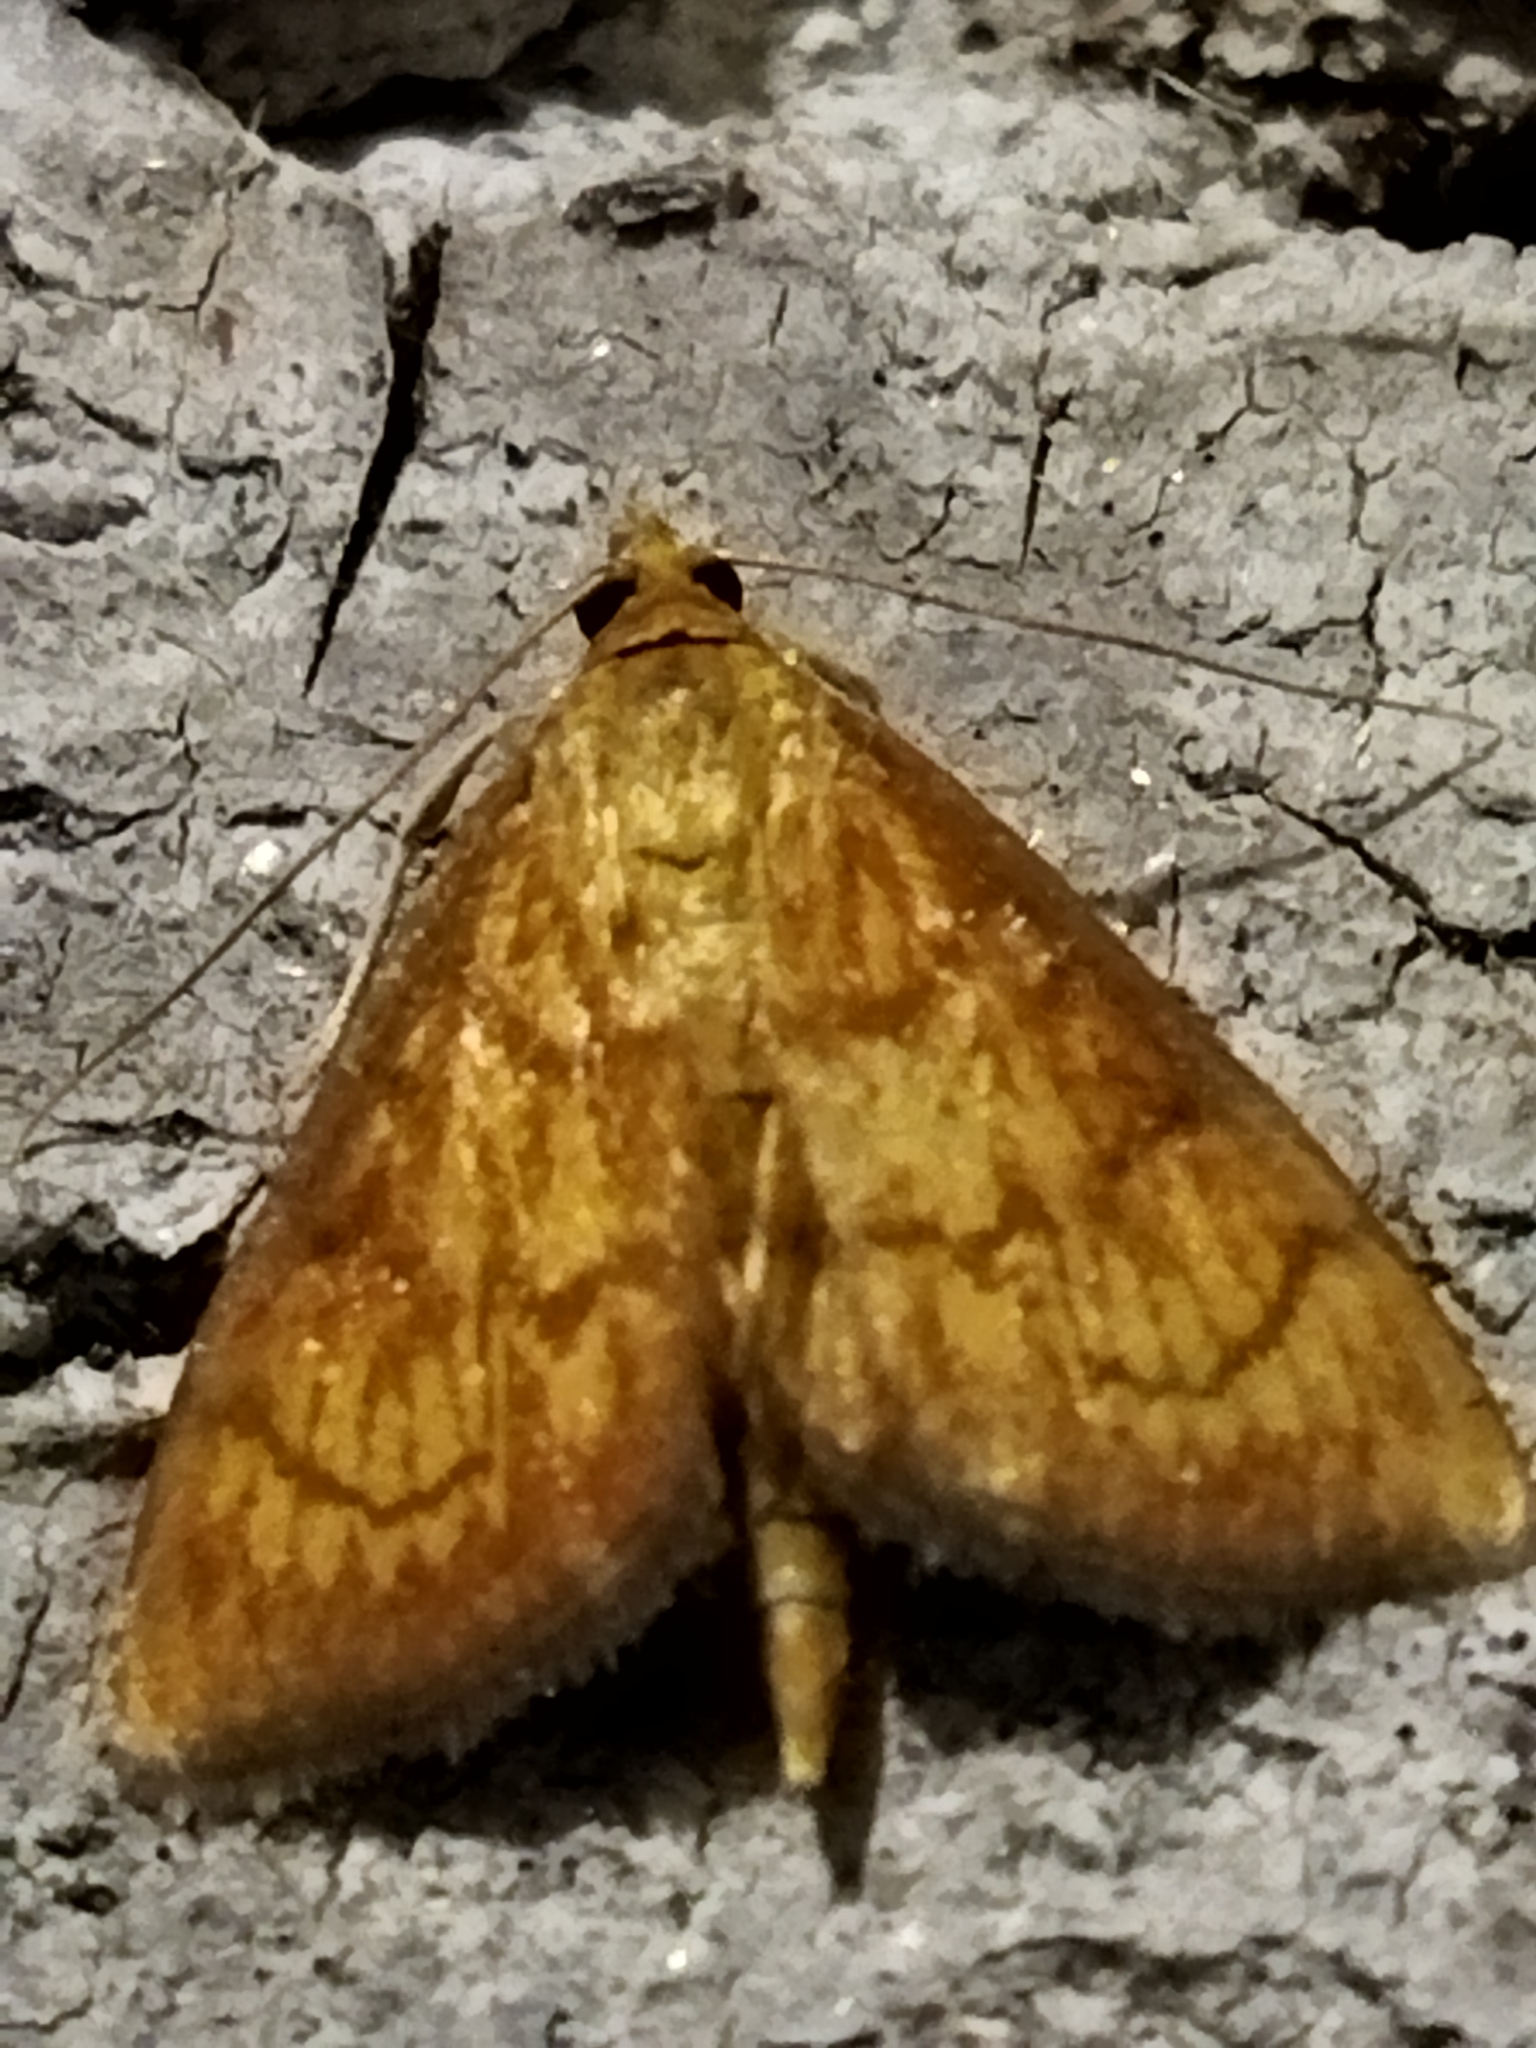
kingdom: Animalia
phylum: Arthropoda
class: Insecta
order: Lepidoptera
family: Crambidae
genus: Ecpyrrhorrhoe
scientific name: Ecpyrrhorrhoe rubiginalis
